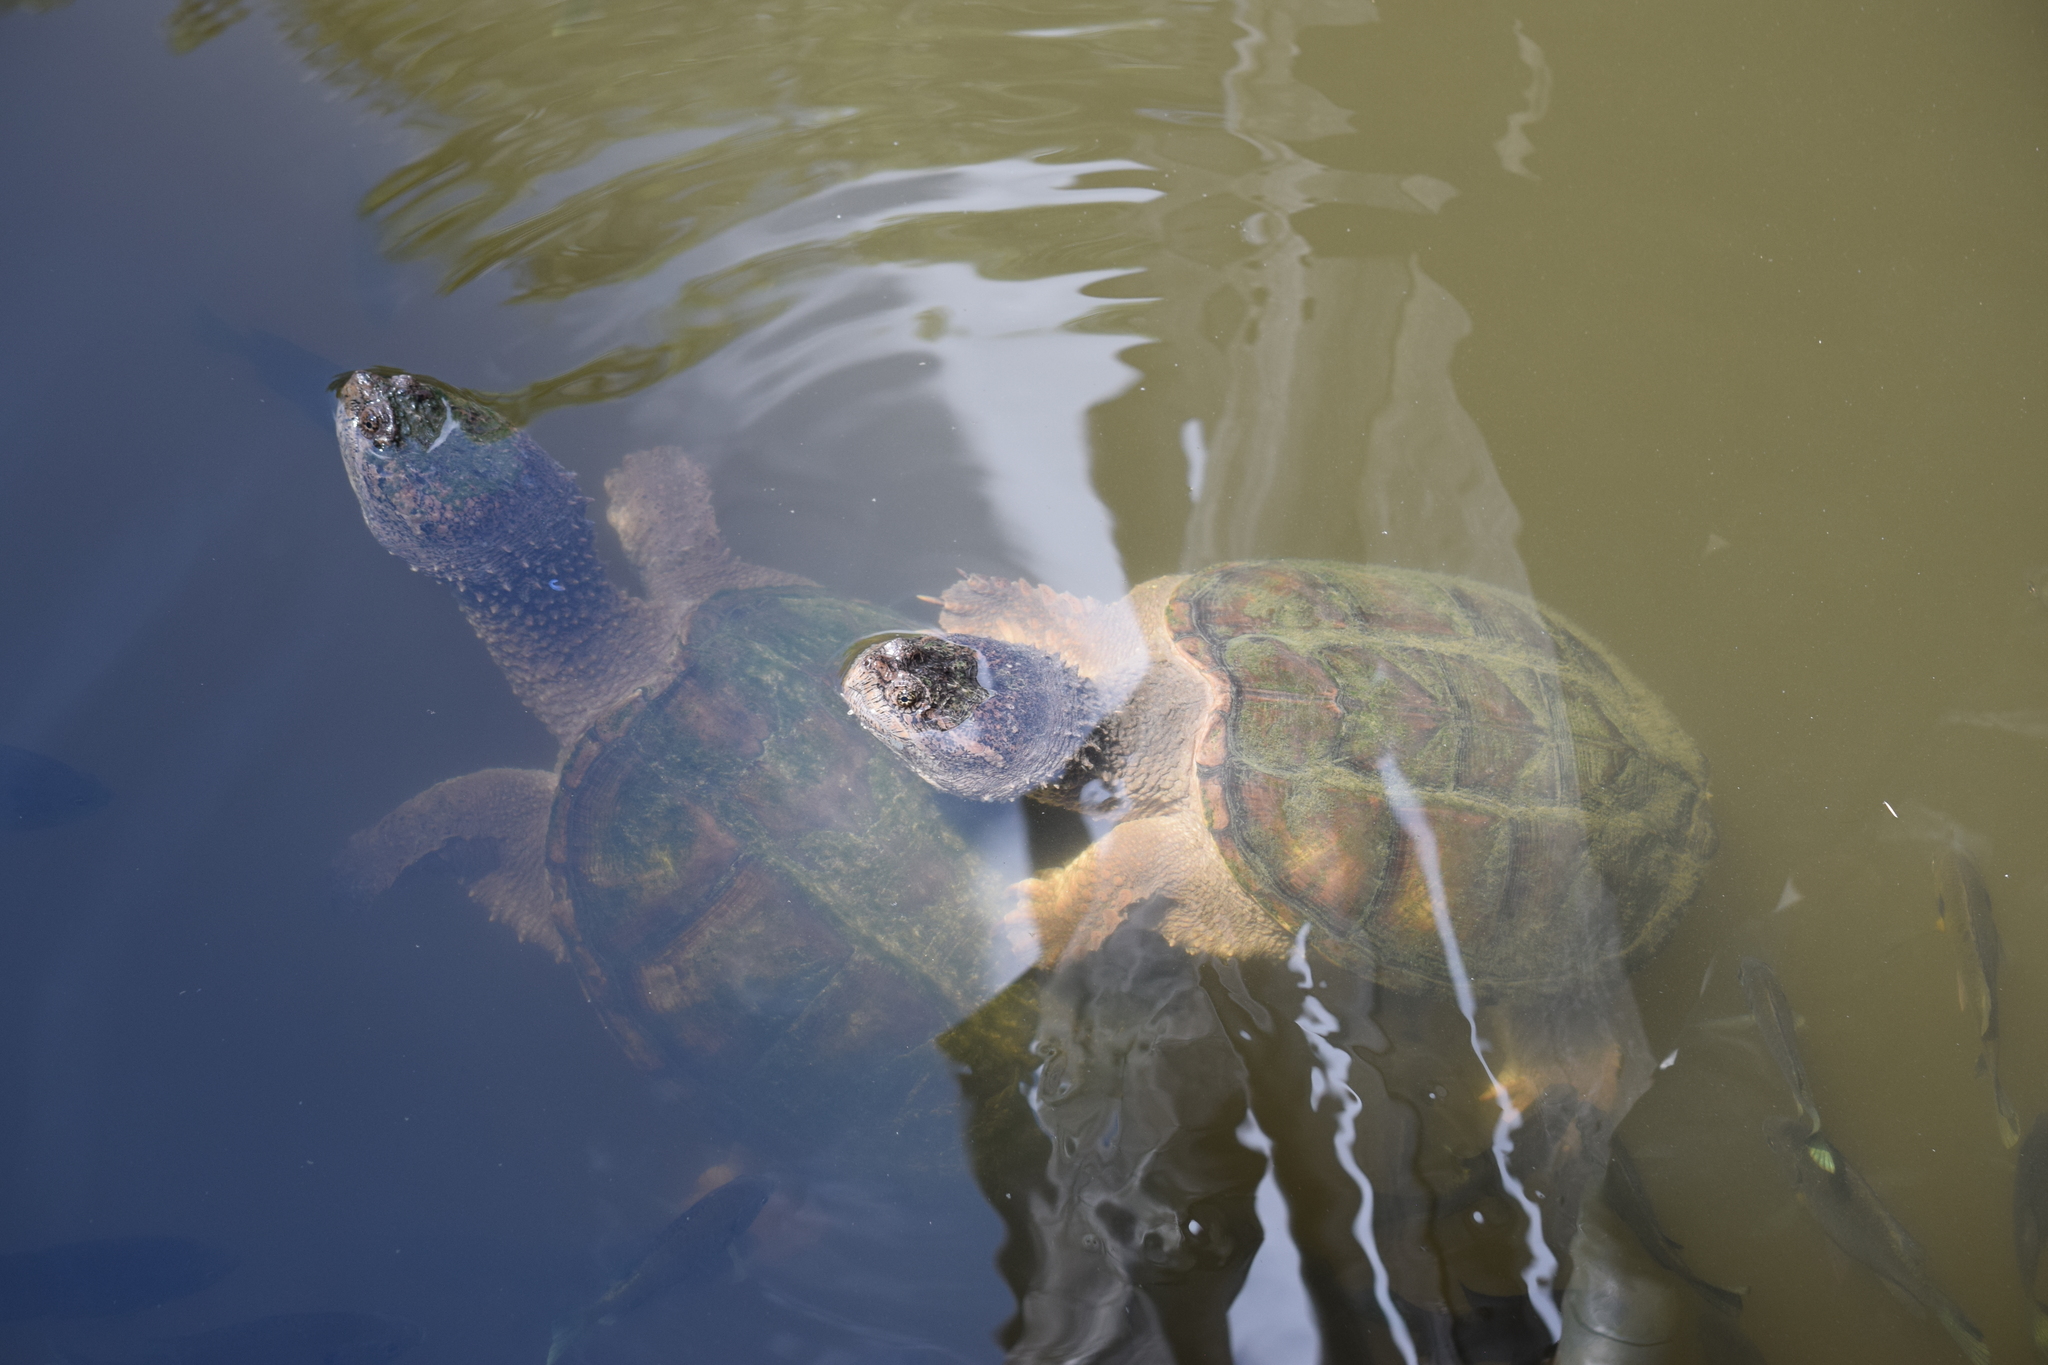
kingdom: Animalia
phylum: Chordata
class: Testudines
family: Chelydridae
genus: Chelydra
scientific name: Chelydra serpentina
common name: Common snapping turtle
